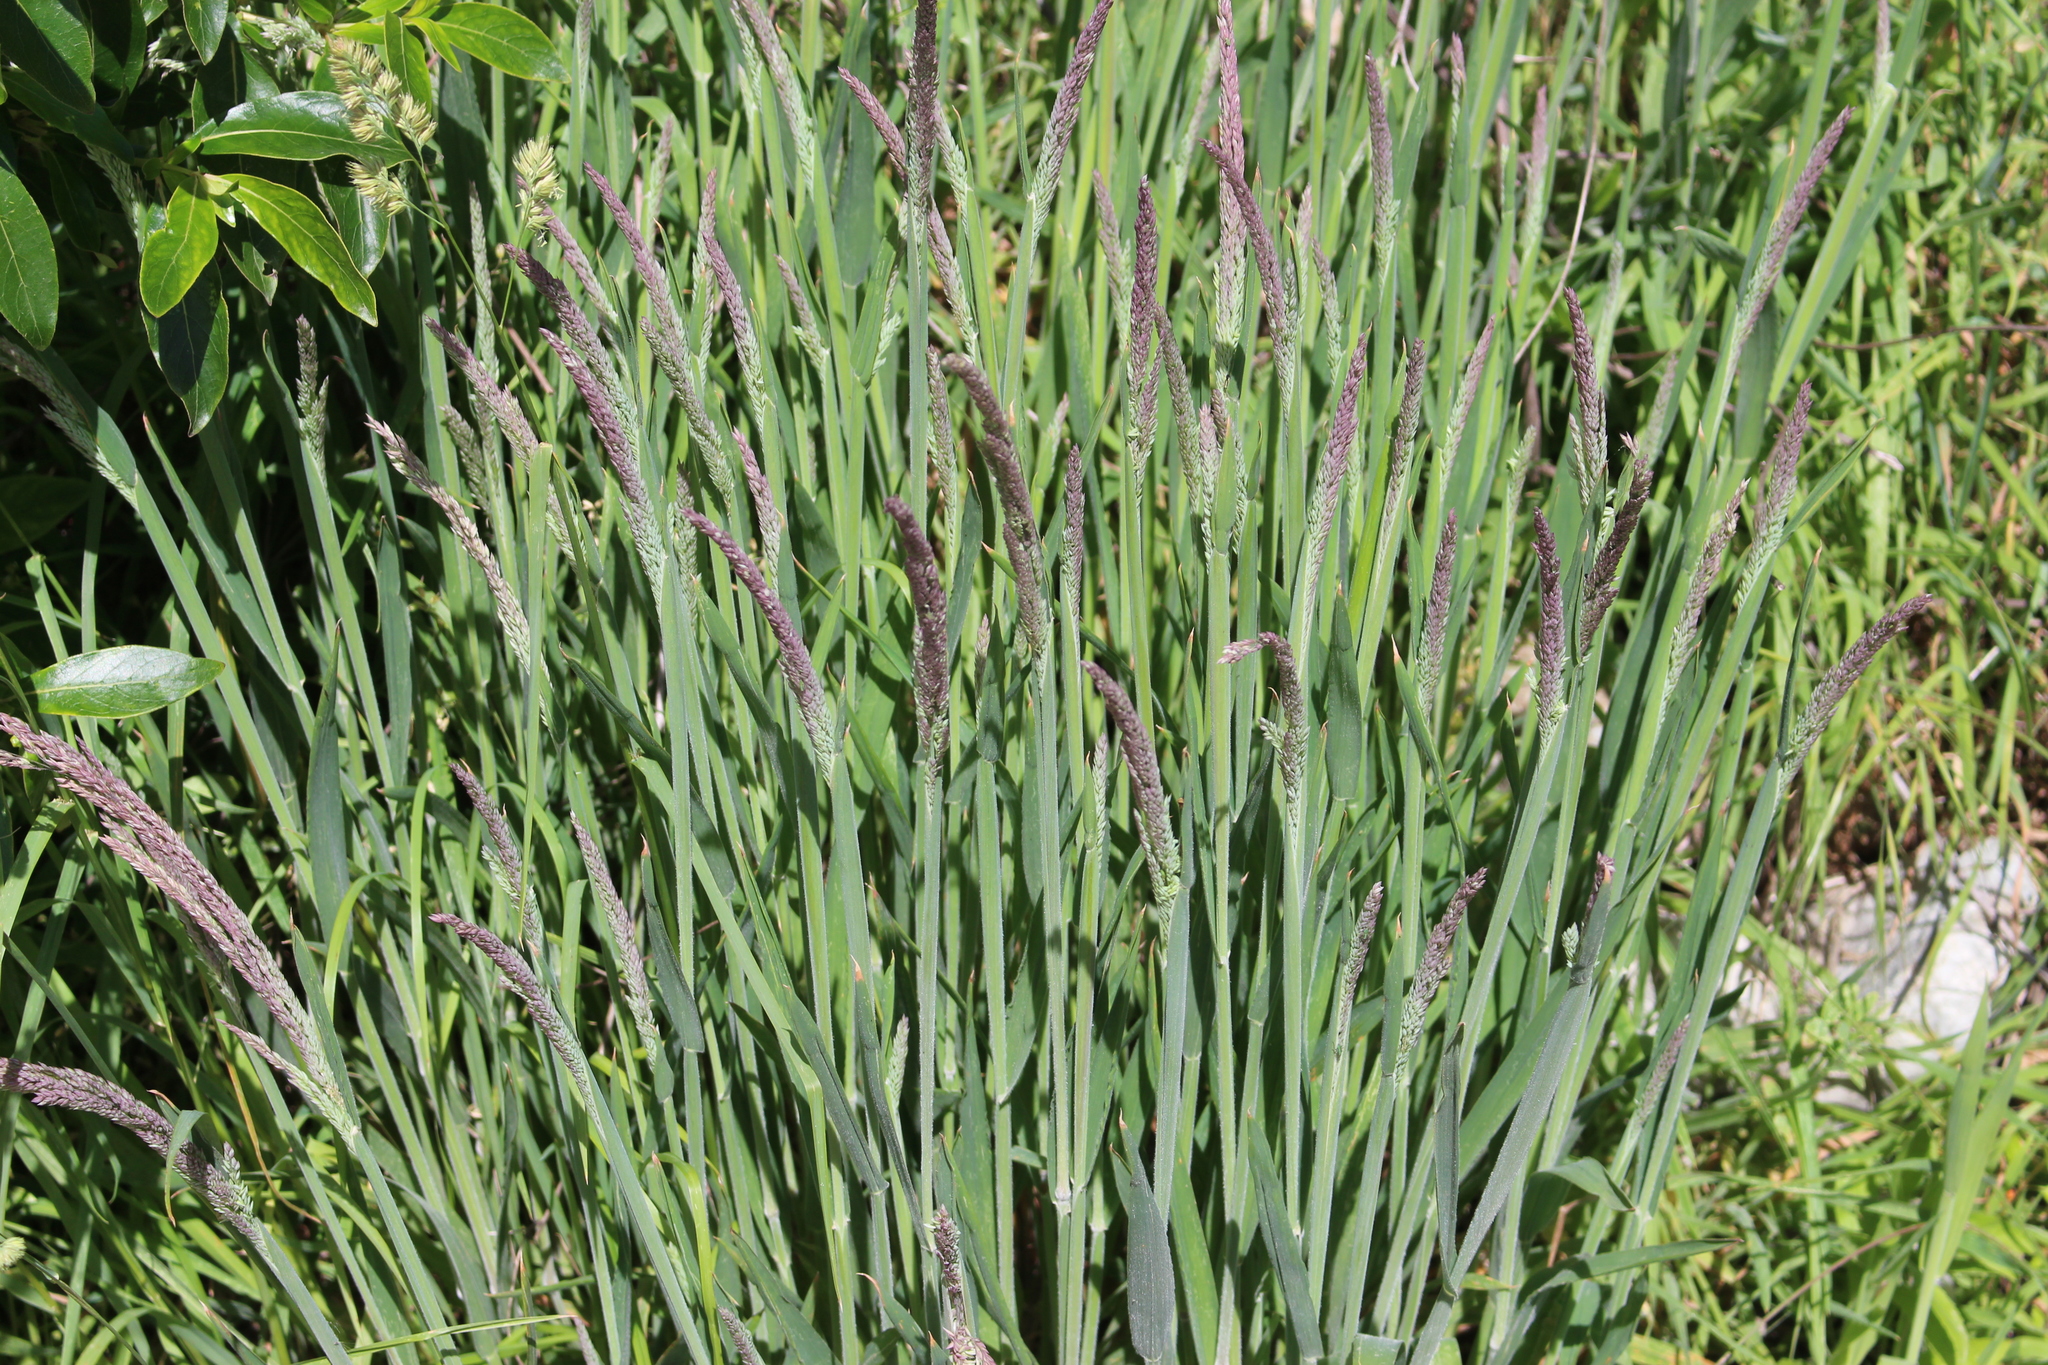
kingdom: Plantae
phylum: Tracheophyta
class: Liliopsida
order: Poales
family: Poaceae
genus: Holcus
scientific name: Holcus lanatus
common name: Yorkshire-fog
